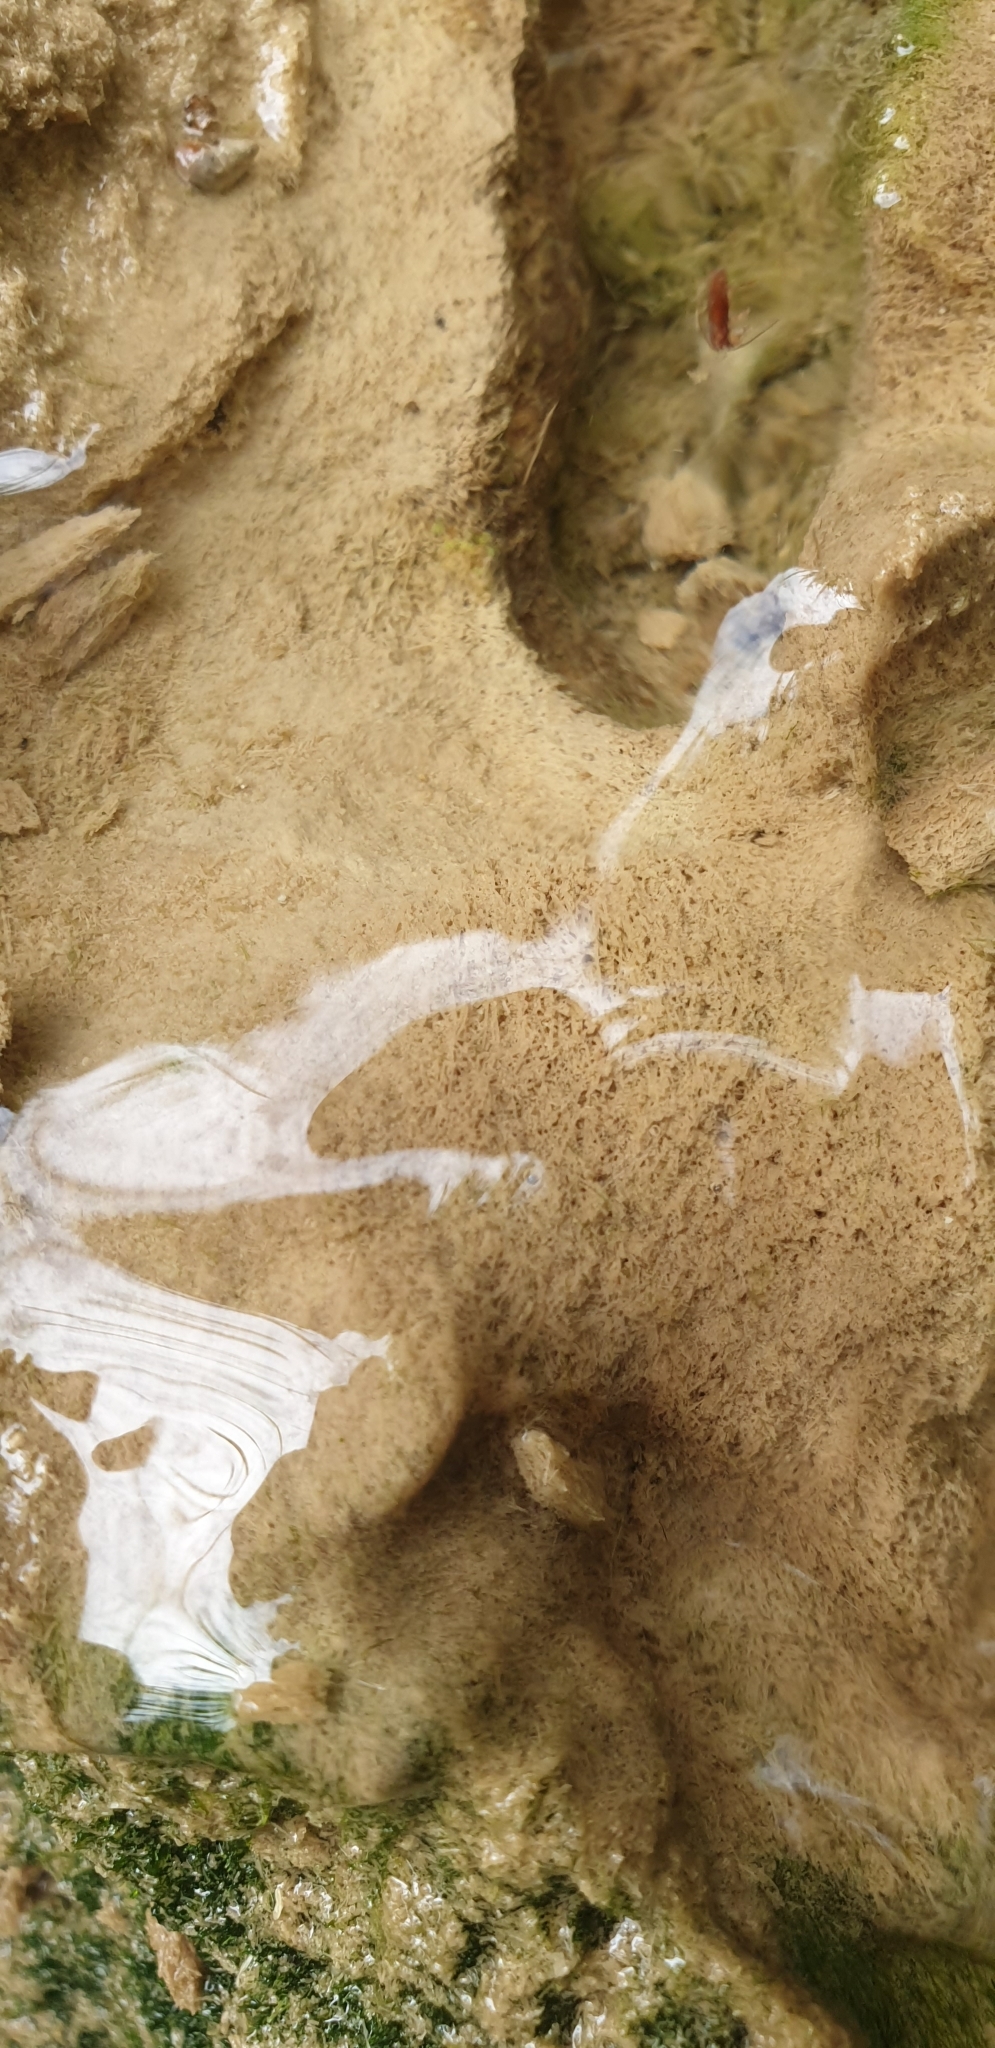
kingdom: Chromista
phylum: Ochrophyta
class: Xanthophyceae
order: Vaucheriales
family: Vaucheriaceae
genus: Vaucheria
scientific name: Vaucheria
